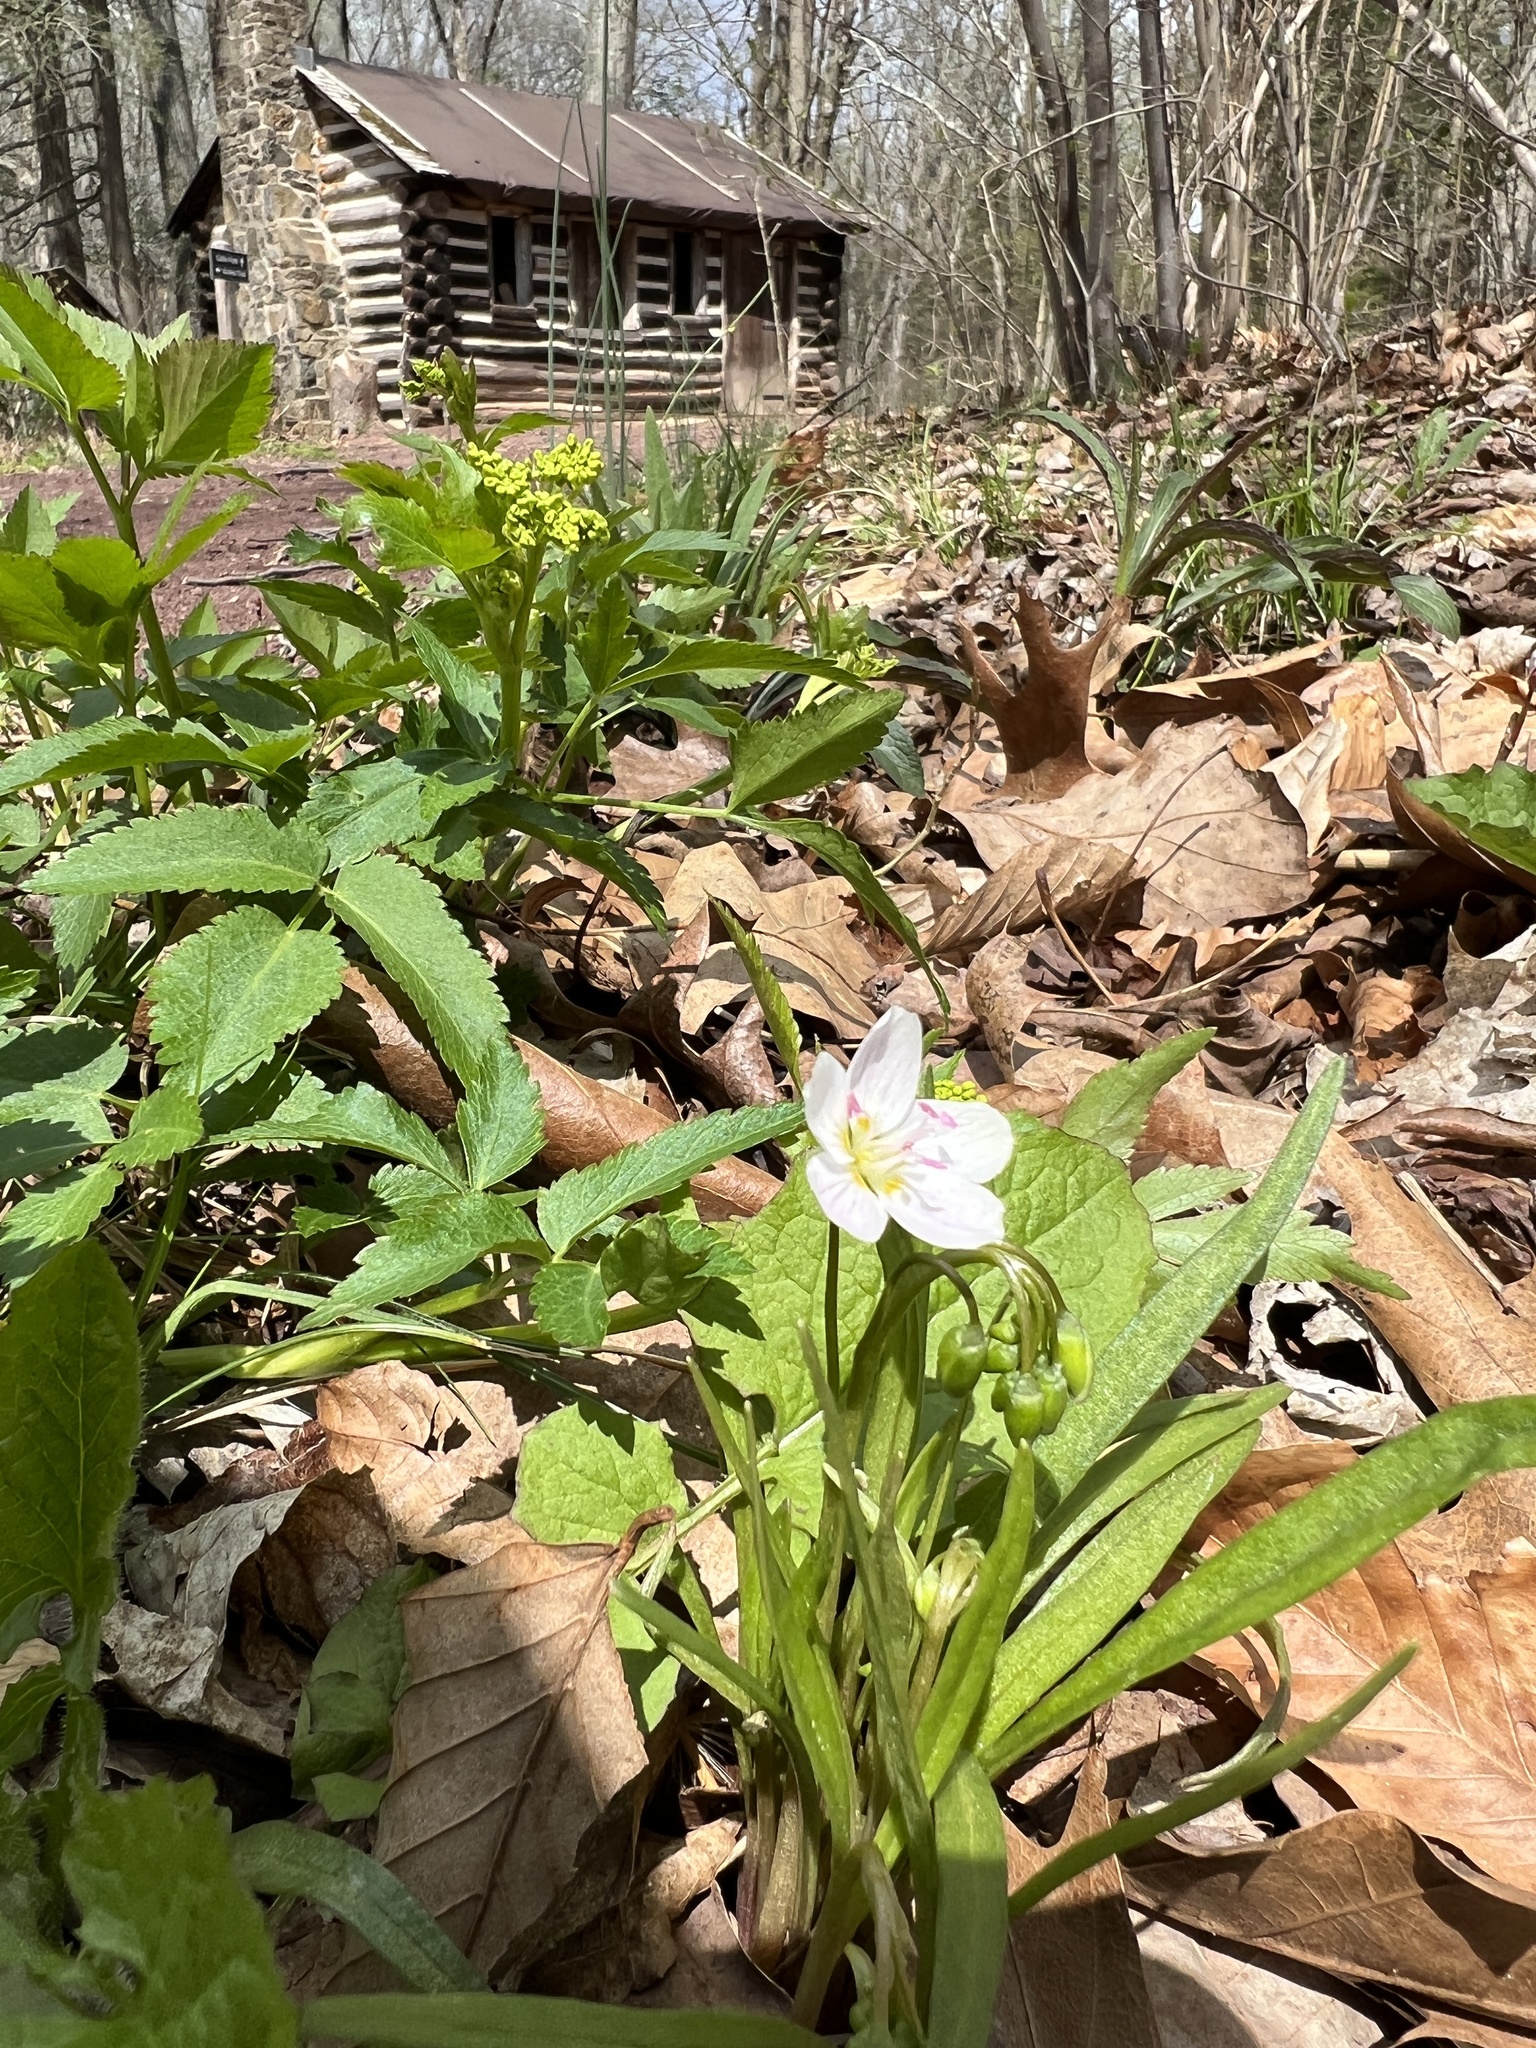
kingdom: Plantae
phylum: Tracheophyta
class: Magnoliopsida
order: Caryophyllales
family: Montiaceae
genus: Claytonia
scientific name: Claytonia virginica
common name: Virginia springbeauty
